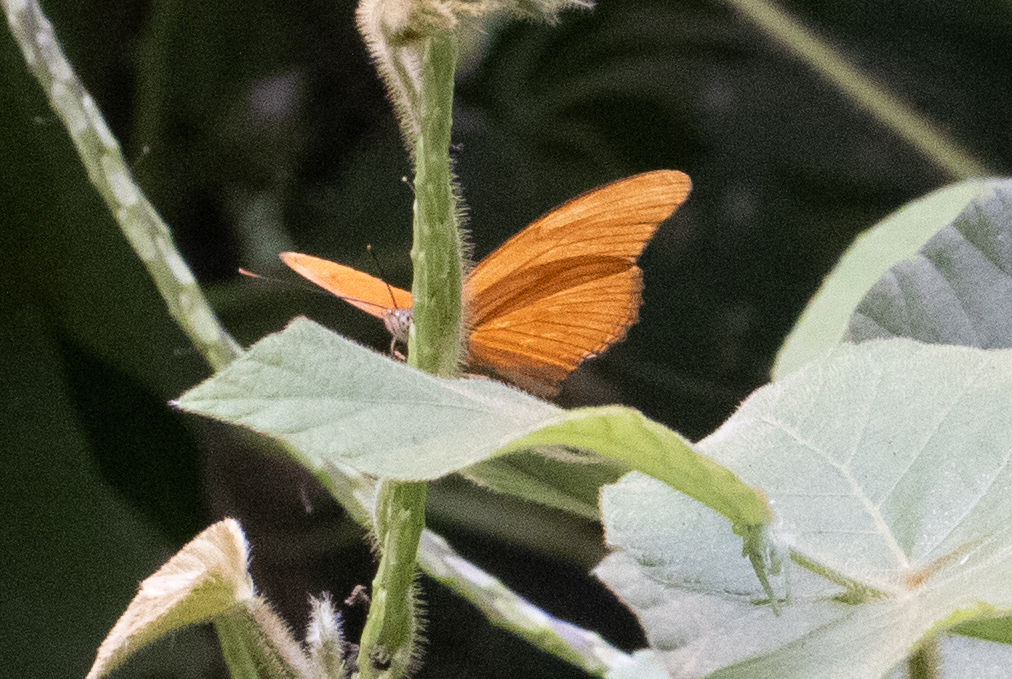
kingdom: Animalia
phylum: Arthropoda
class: Insecta
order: Lepidoptera
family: Nymphalidae
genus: Dryas
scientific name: Dryas iulia
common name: Flambeau
